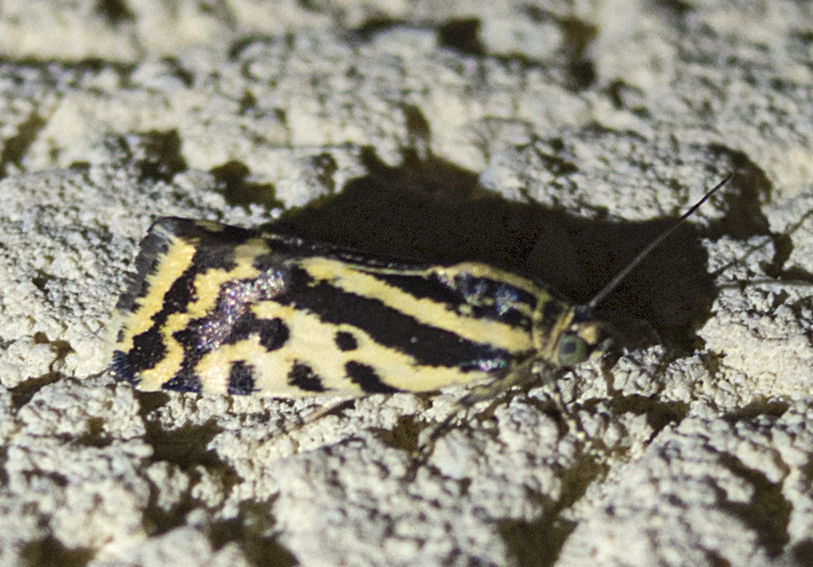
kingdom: Animalia
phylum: Arthropoda
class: Insecta
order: Lepidoptera
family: Noctuidae
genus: Acontia
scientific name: Acontia trabealis
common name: Spotted sulphur
